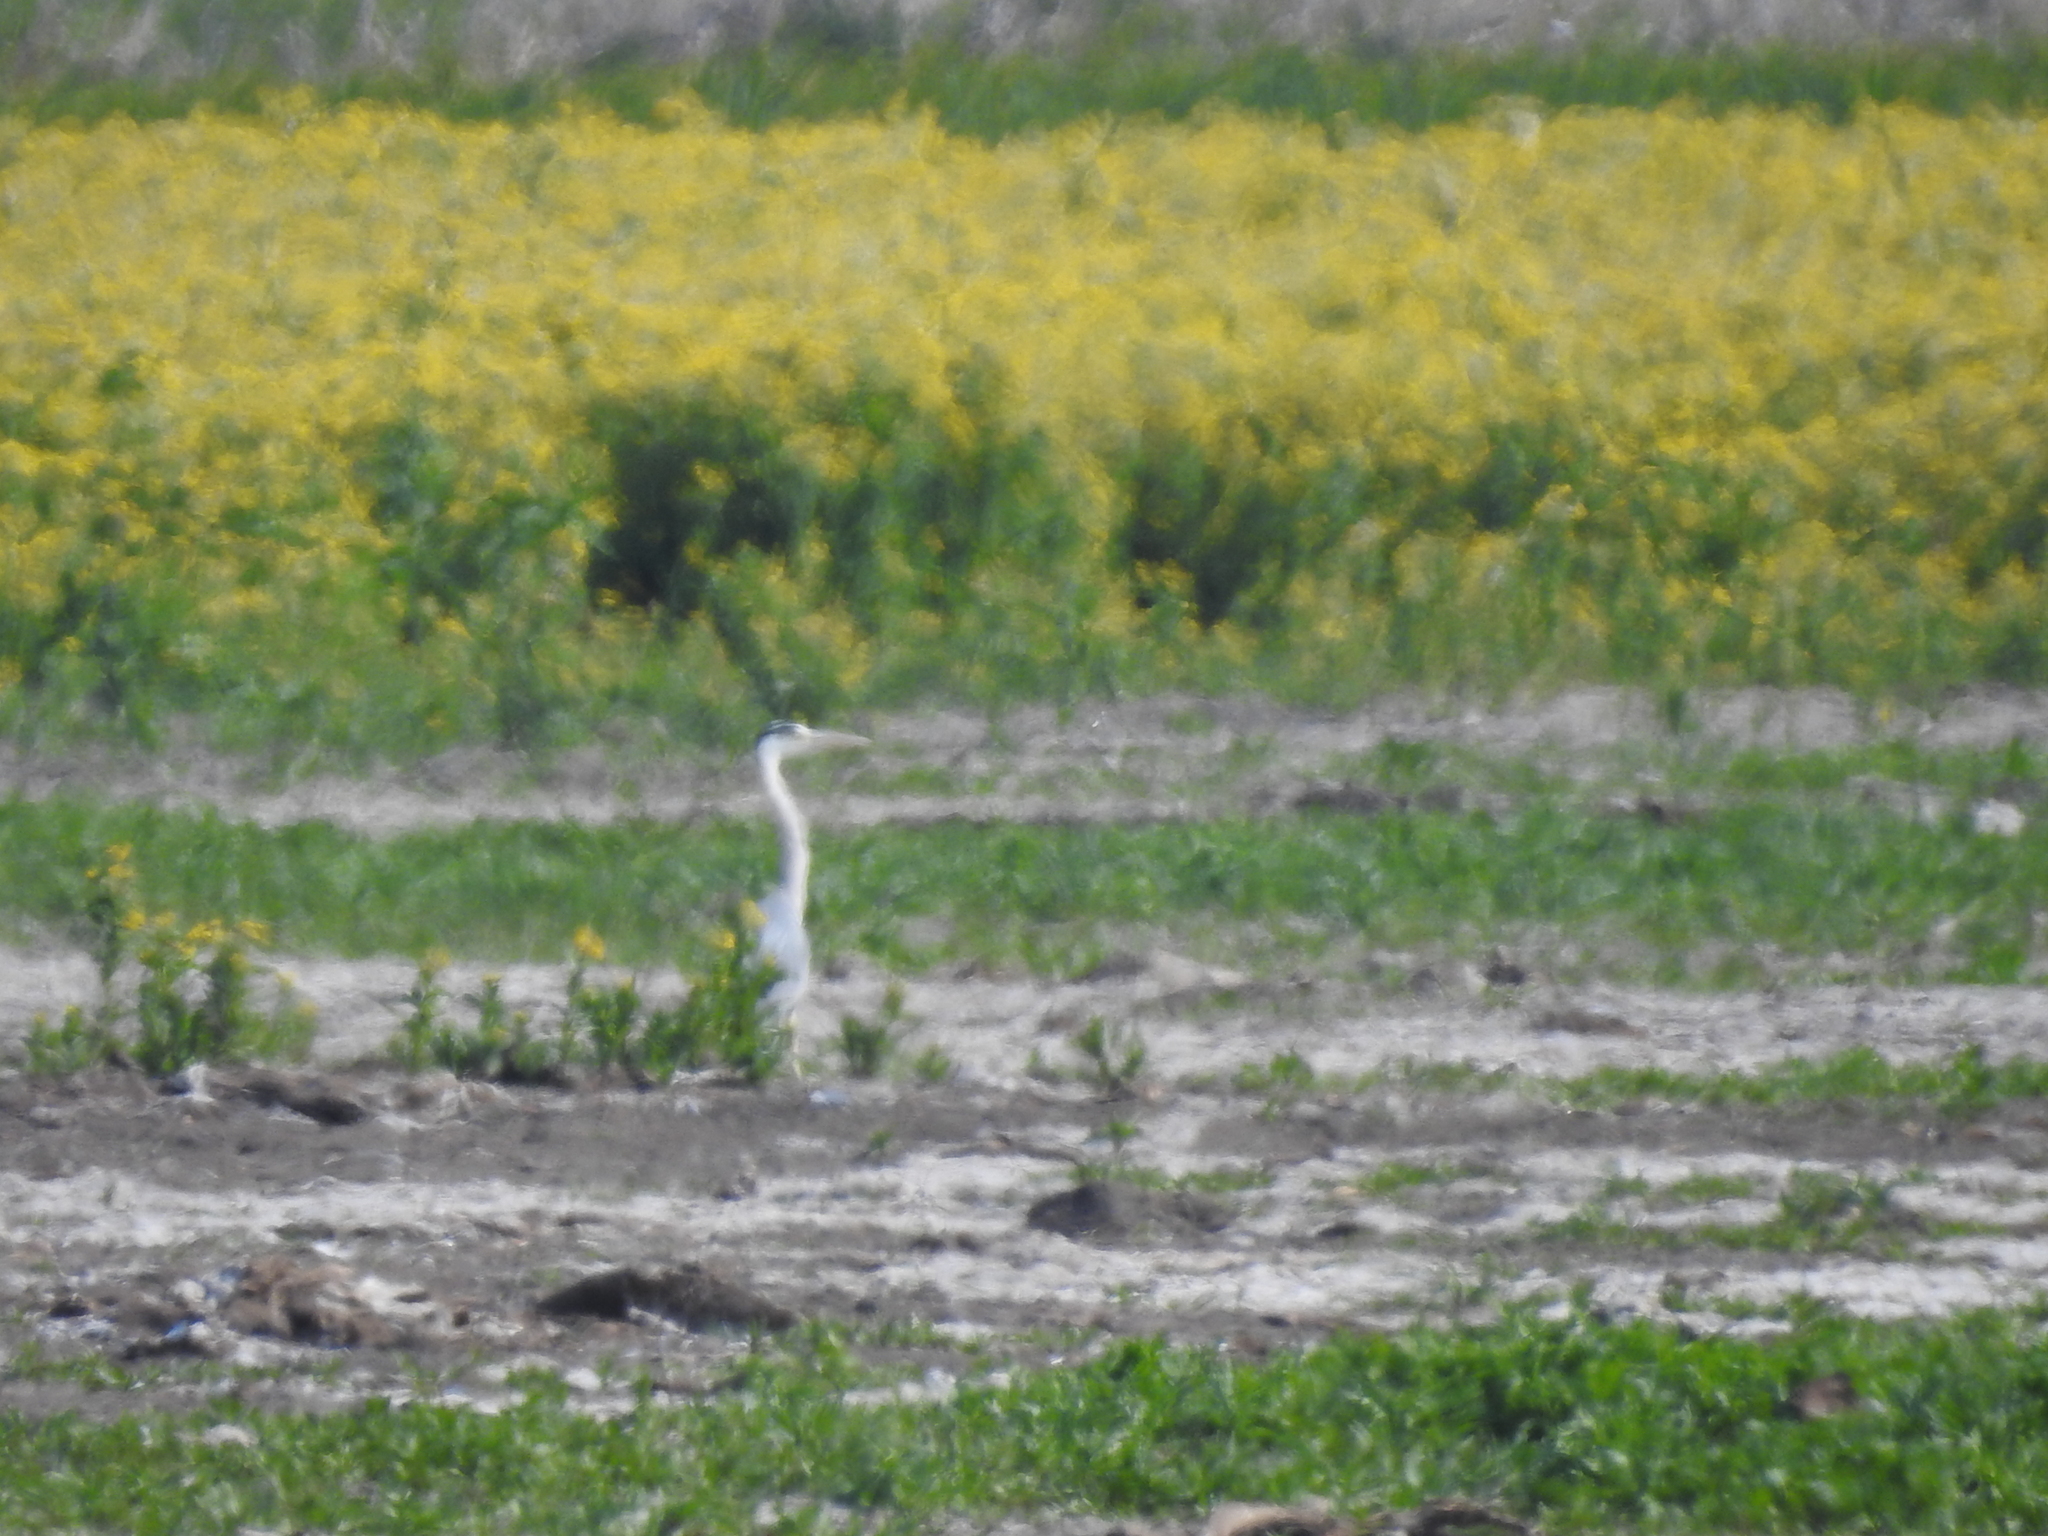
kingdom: Animalia
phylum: Chordata
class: Aves
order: Pelecaniformes
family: Ardeidae
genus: Ardea
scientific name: Ardea cinerea
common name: Grey heron
